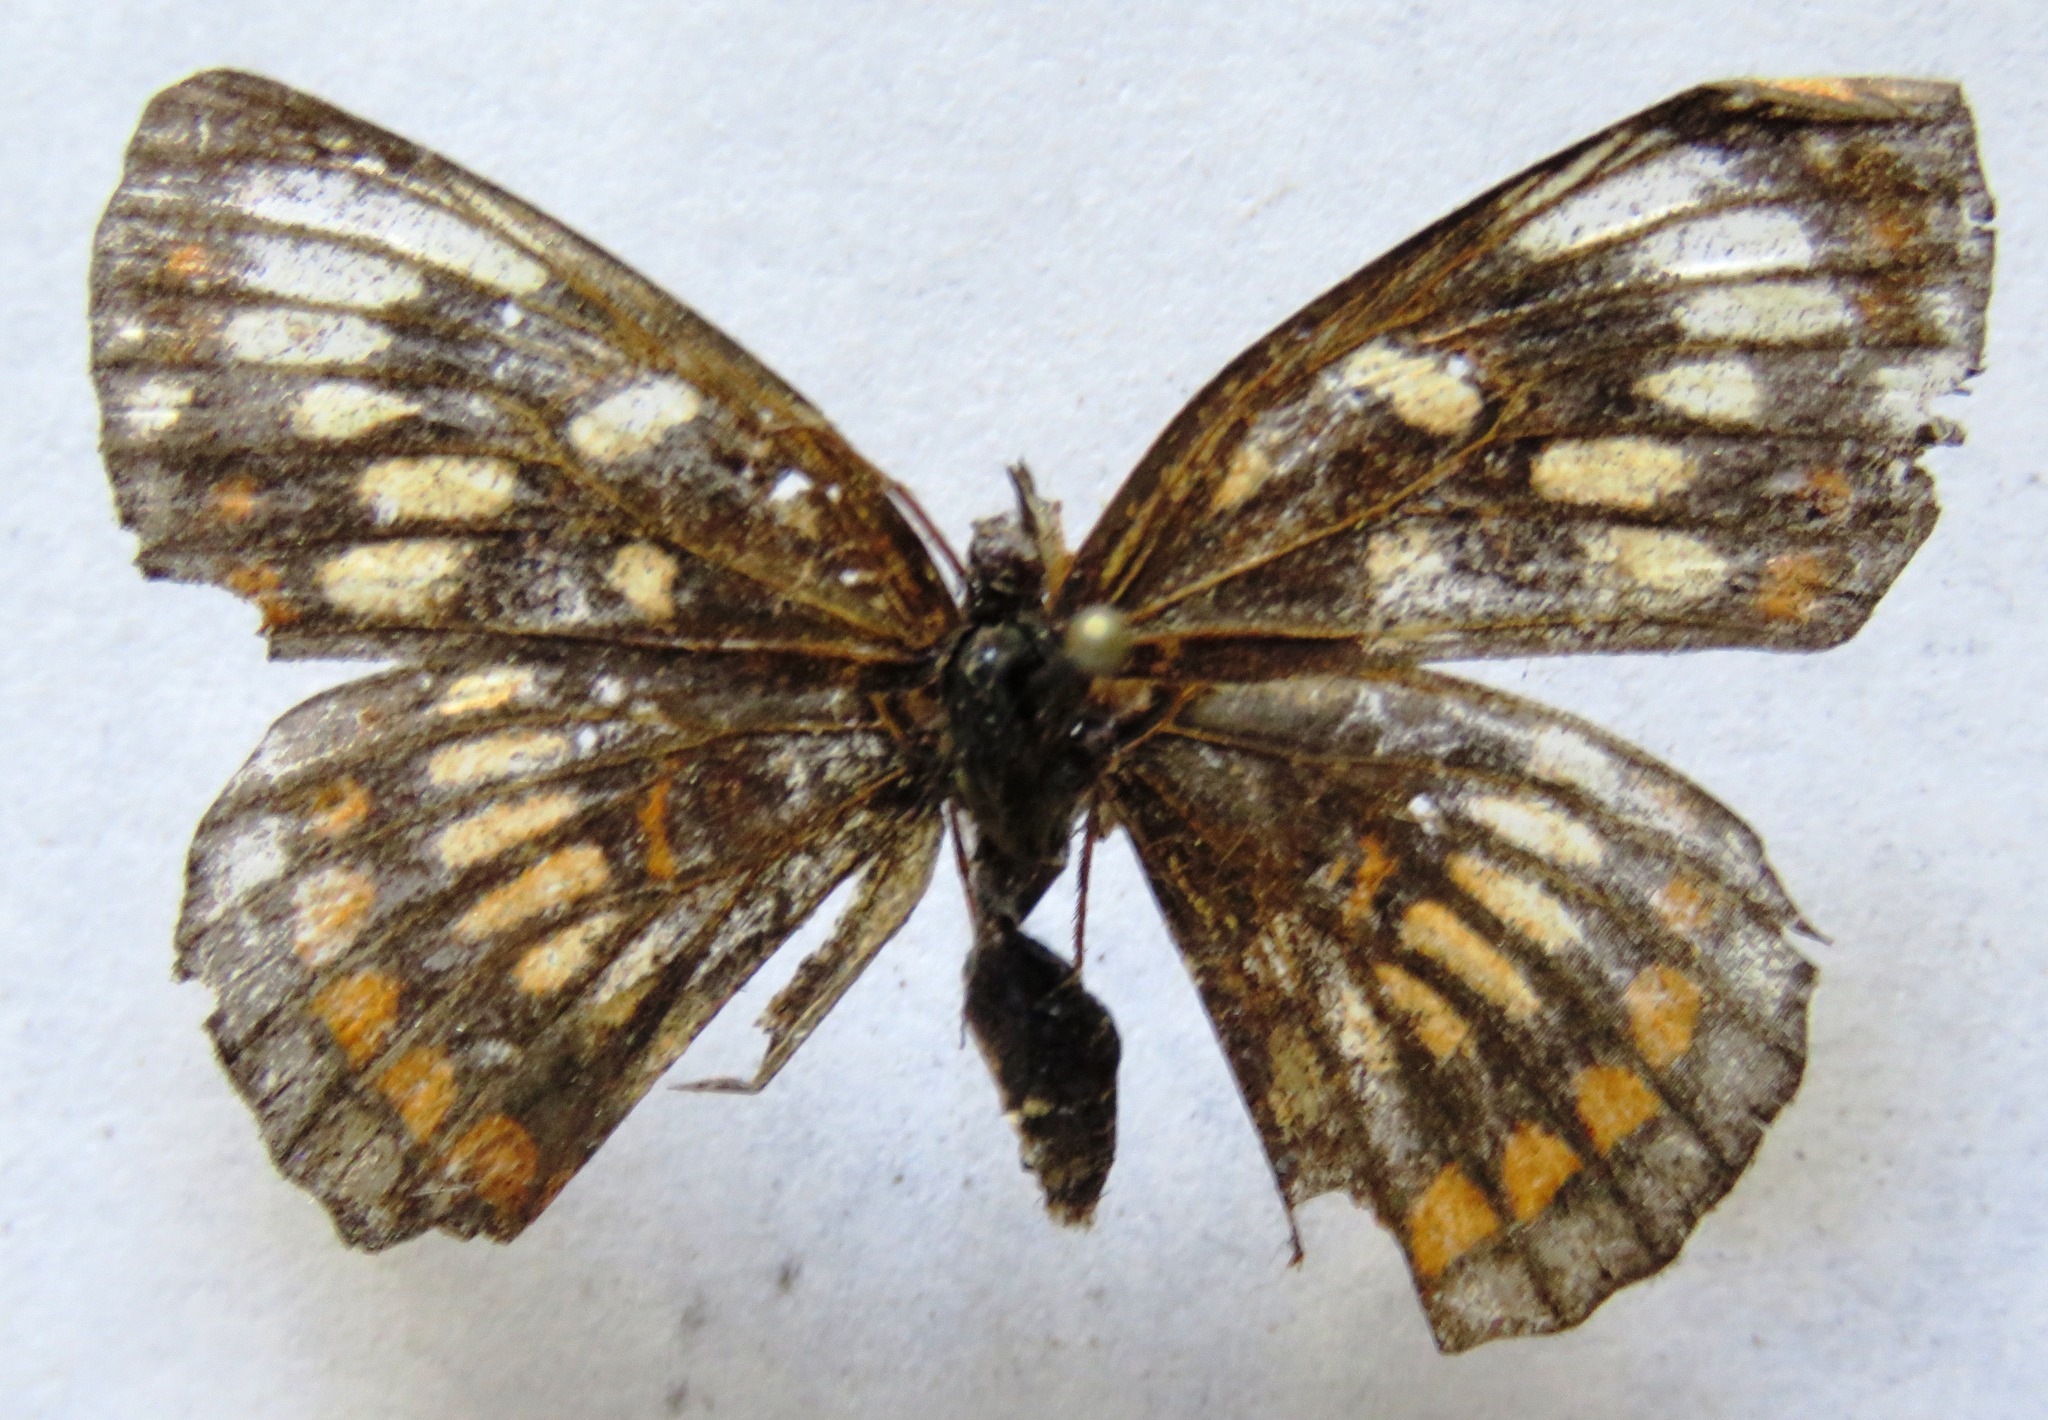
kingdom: Animalia
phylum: Arthropoda
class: Insecta
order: Lepidoptera
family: Nymphalidae
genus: Thessalia
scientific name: Thessalia theona
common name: Nymphalid moth
